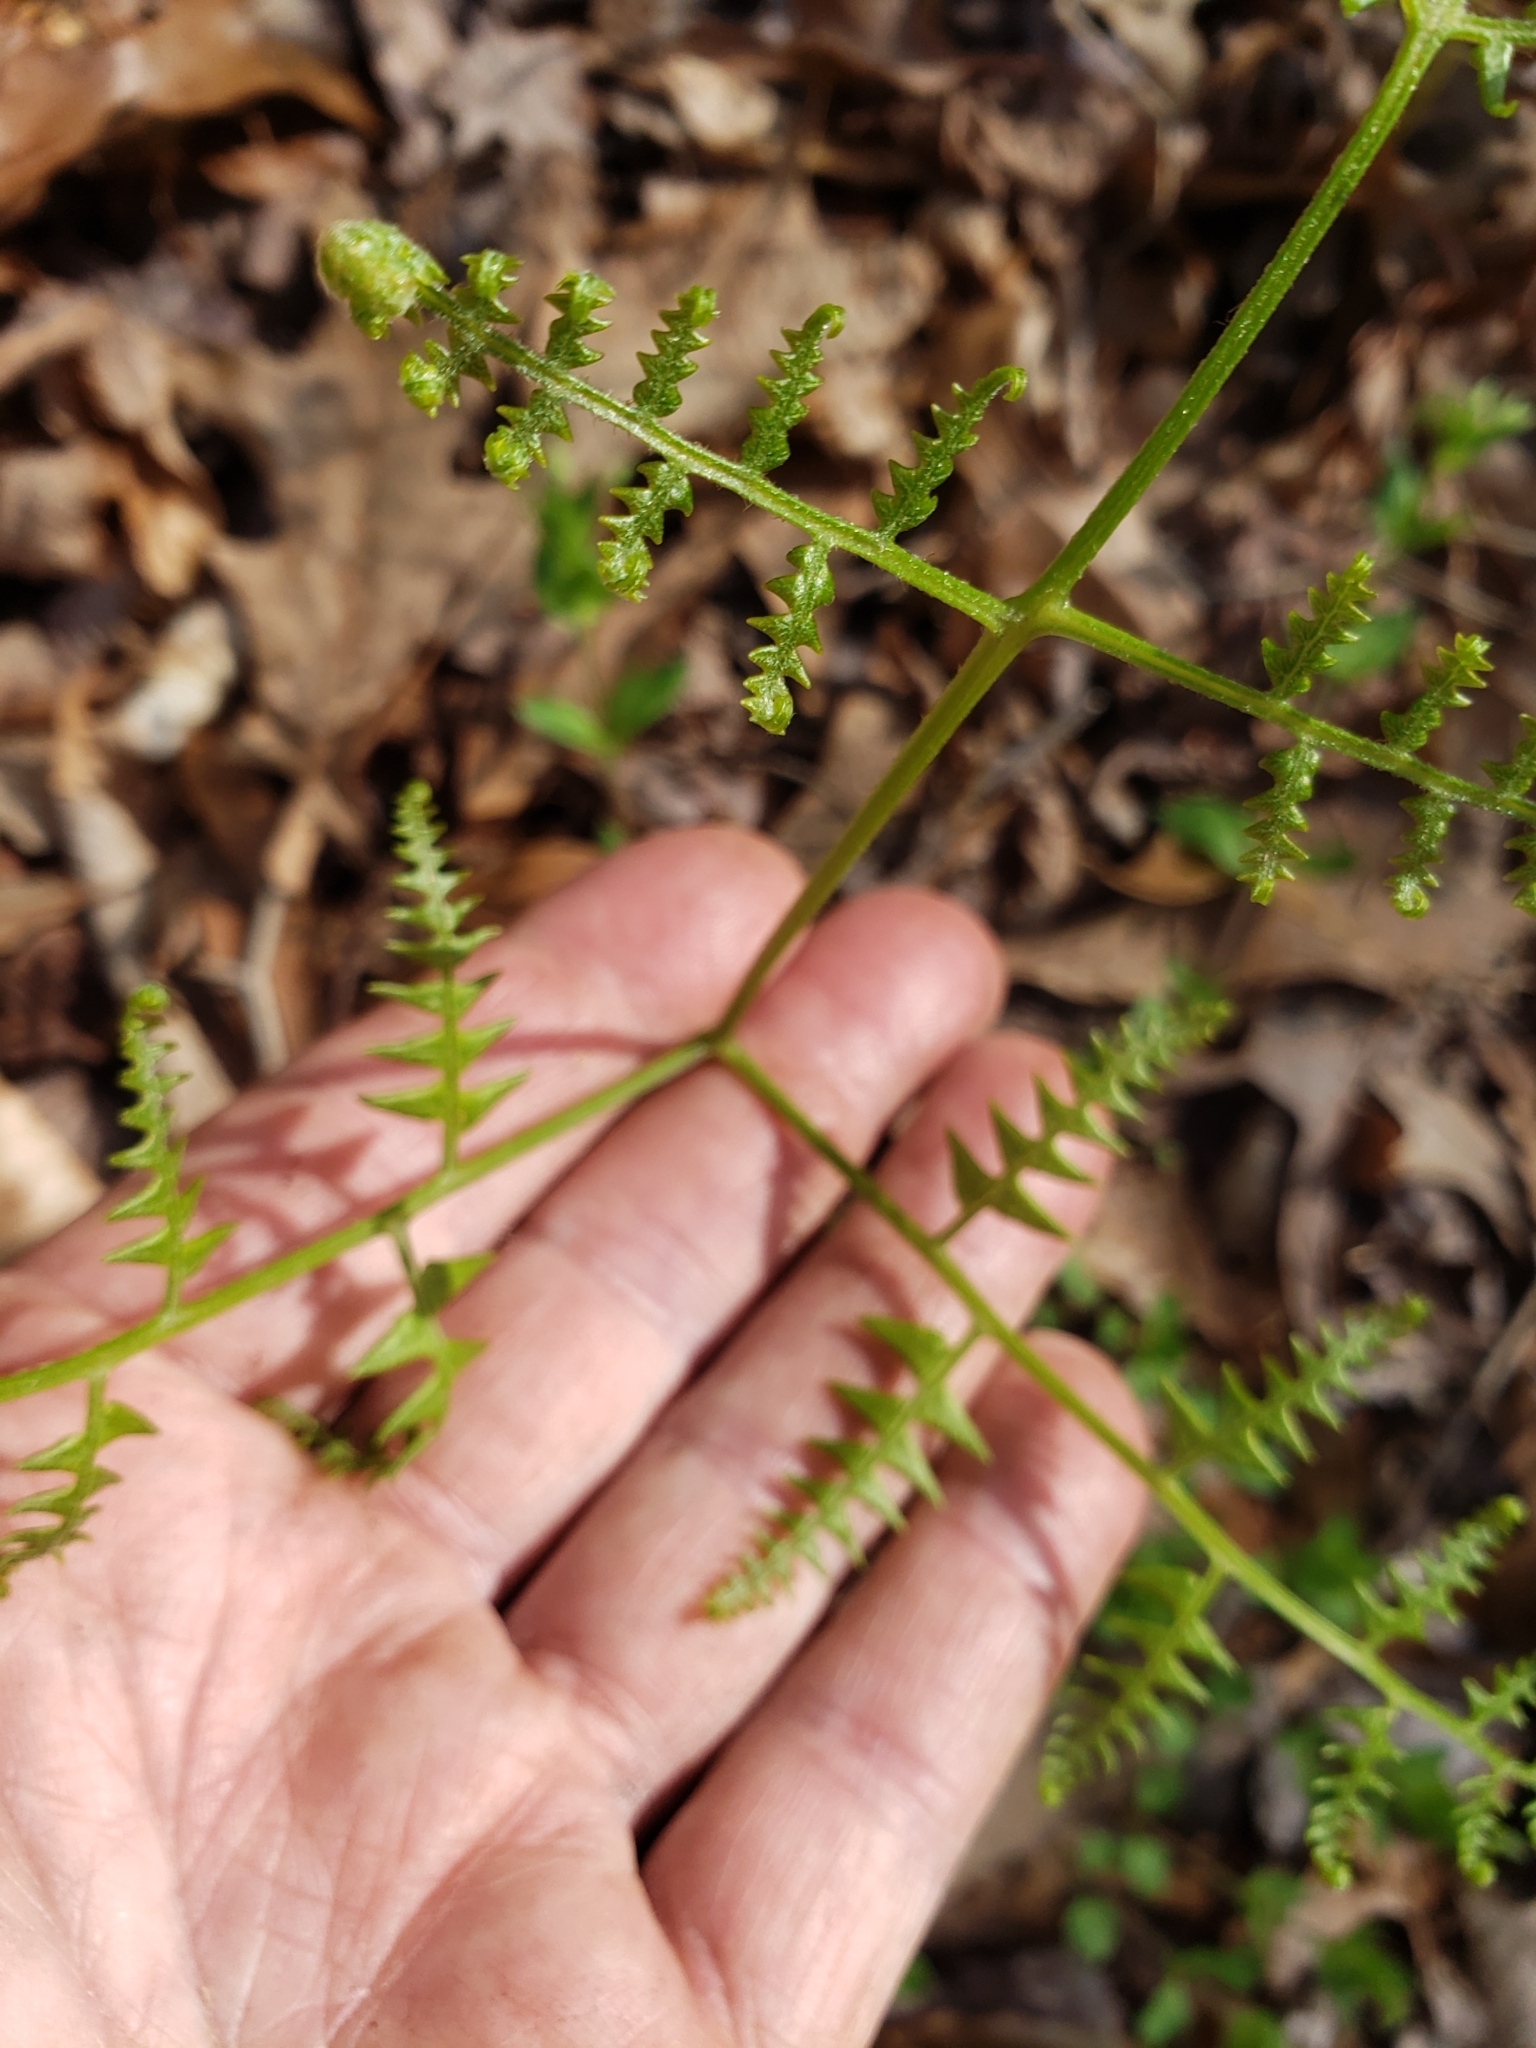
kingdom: Plantae
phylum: Tracheophyta
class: Polypodiopsida
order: Polypodiales
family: Dennstaedtiaceae
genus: Pteridium
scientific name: Pteridium
